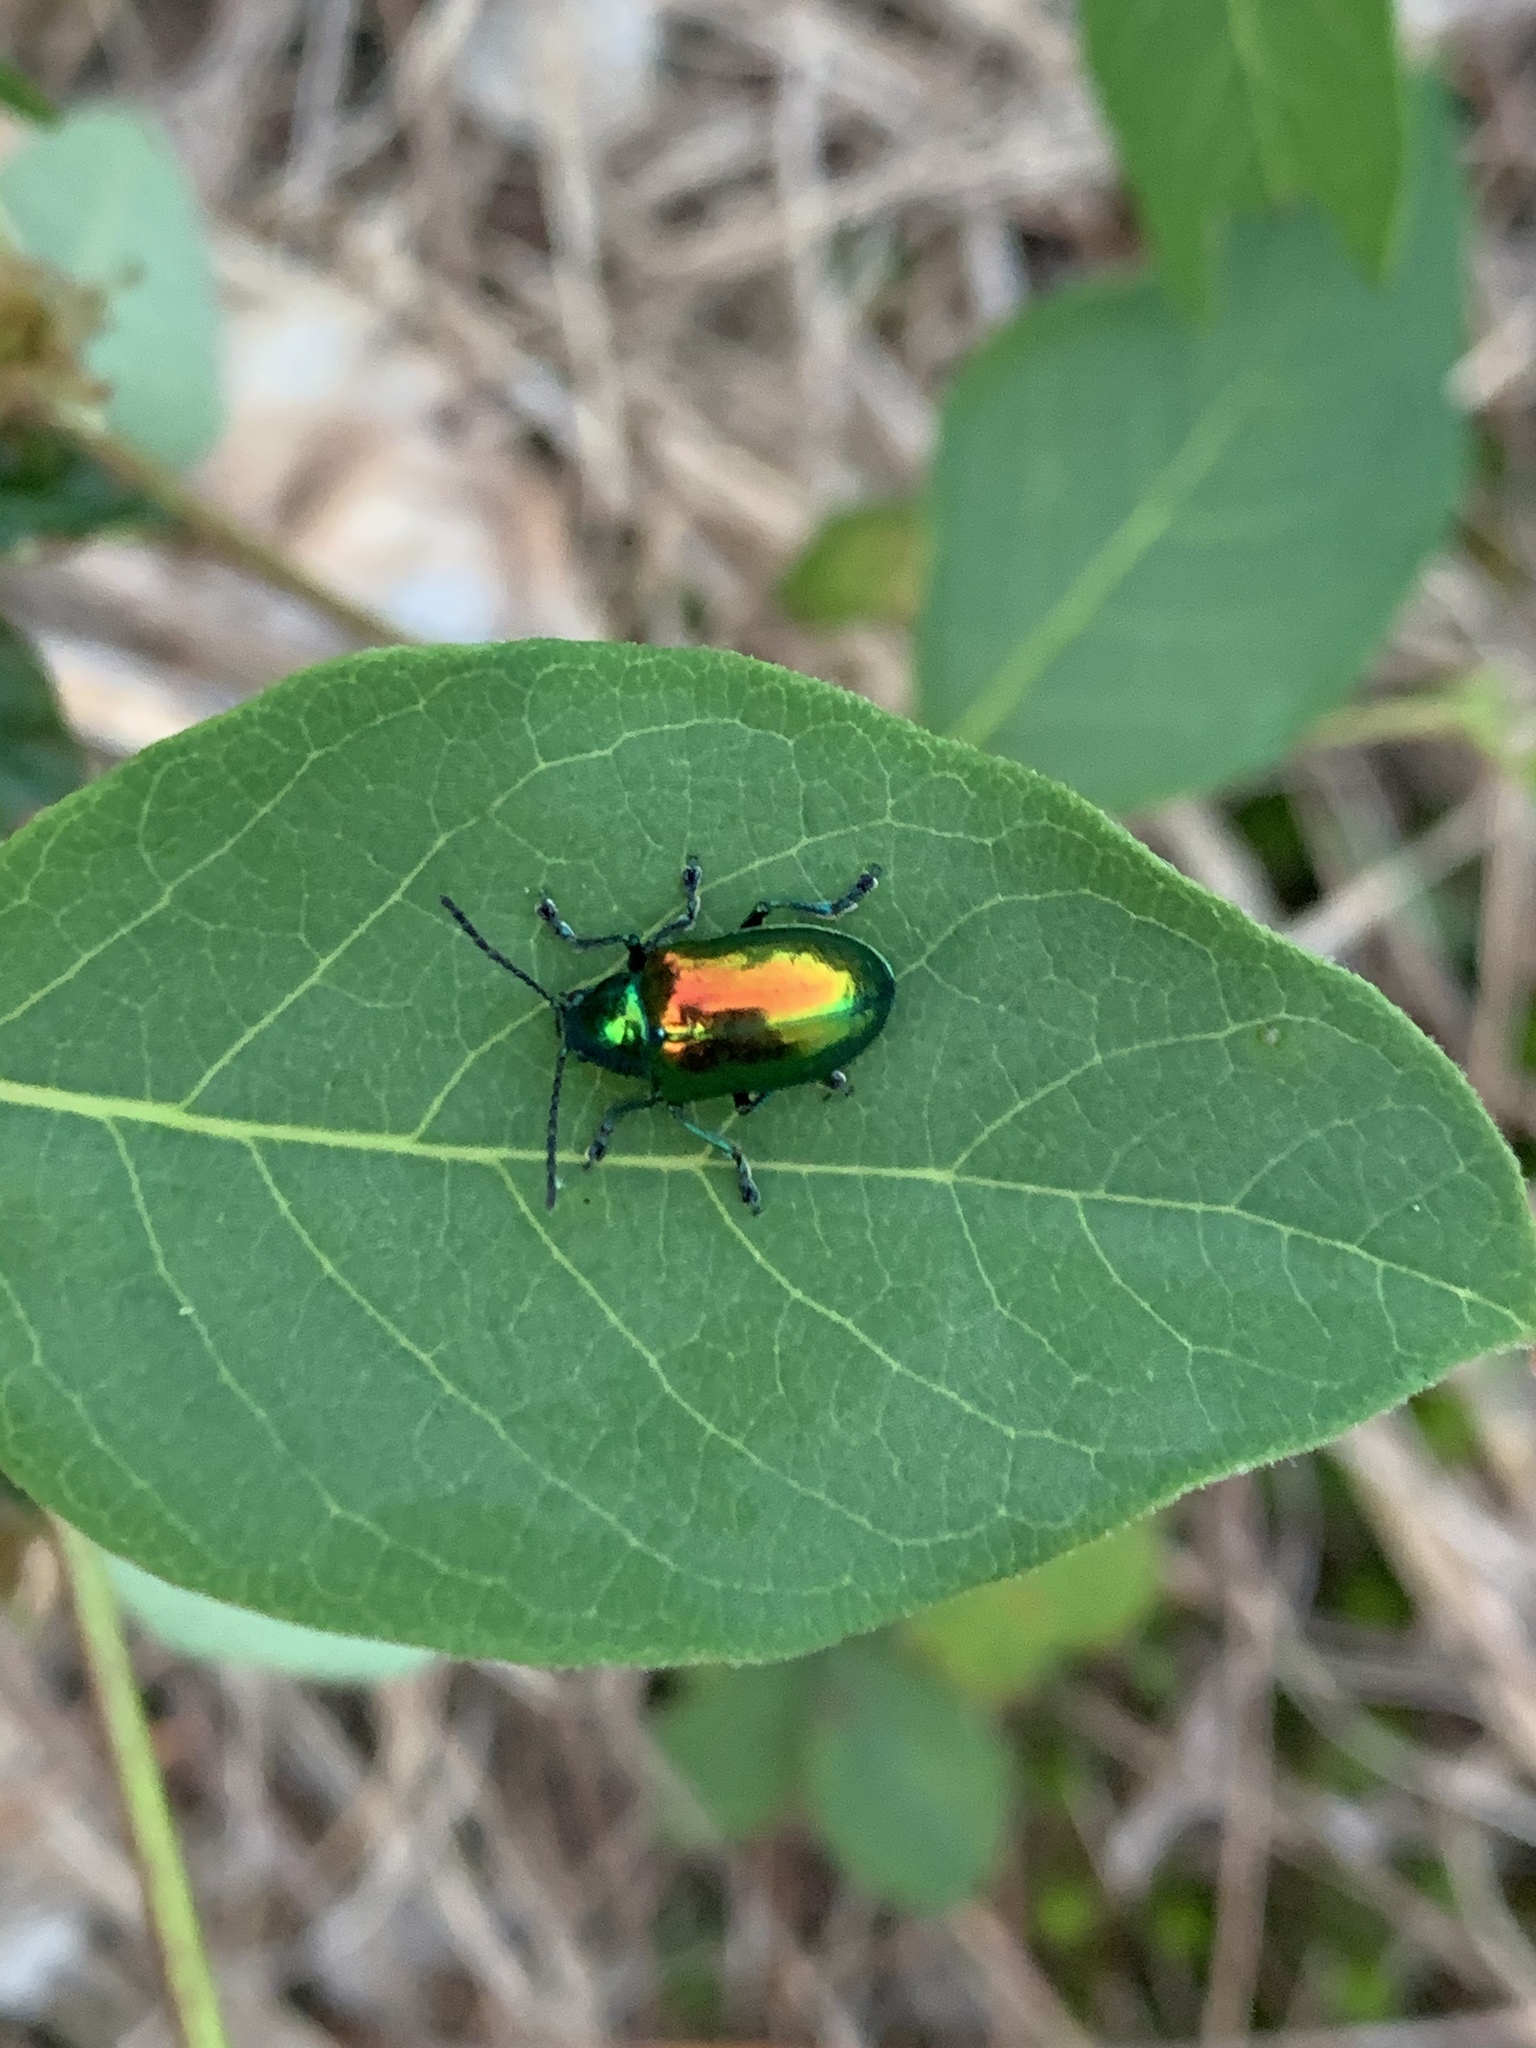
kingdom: Animalia
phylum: Arthropoda
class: Insecta
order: Coleoptera
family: Chrysomelidae
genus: Chrysochus
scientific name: Chrysochus auratus
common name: Dogbane leaf beetle
